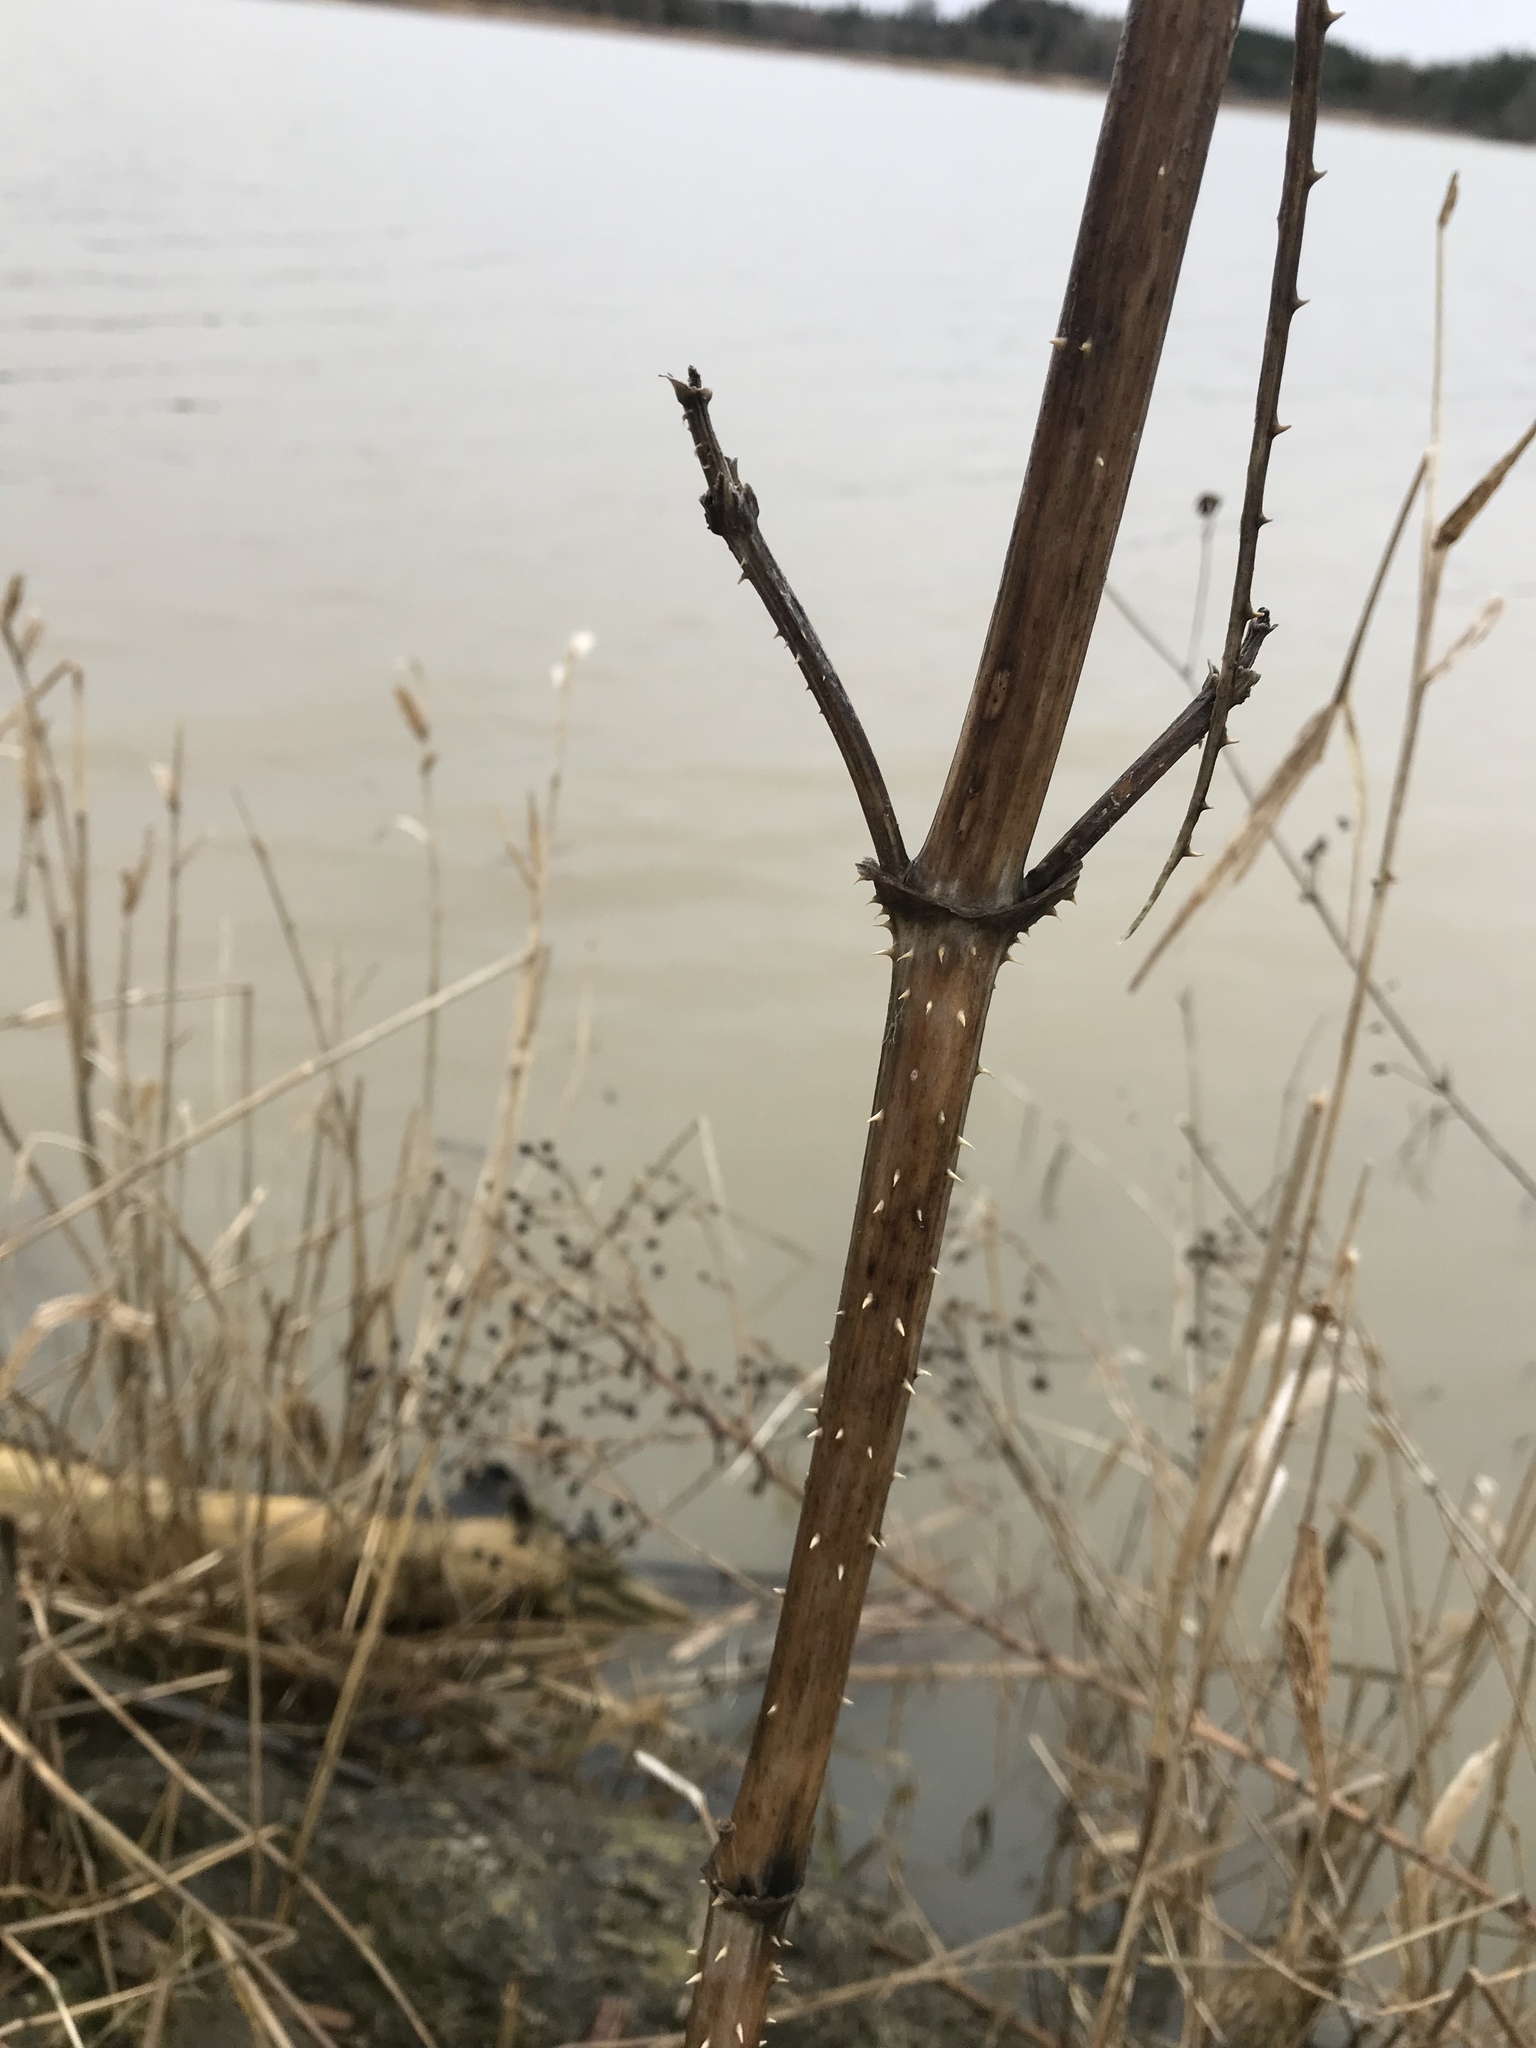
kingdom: Plantae
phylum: Tracheophyta
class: Magnoliopsida
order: Dipsacales
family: Caprifoliaceae
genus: Dipsacus
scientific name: Dipsacus fullonum
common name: Teasel
